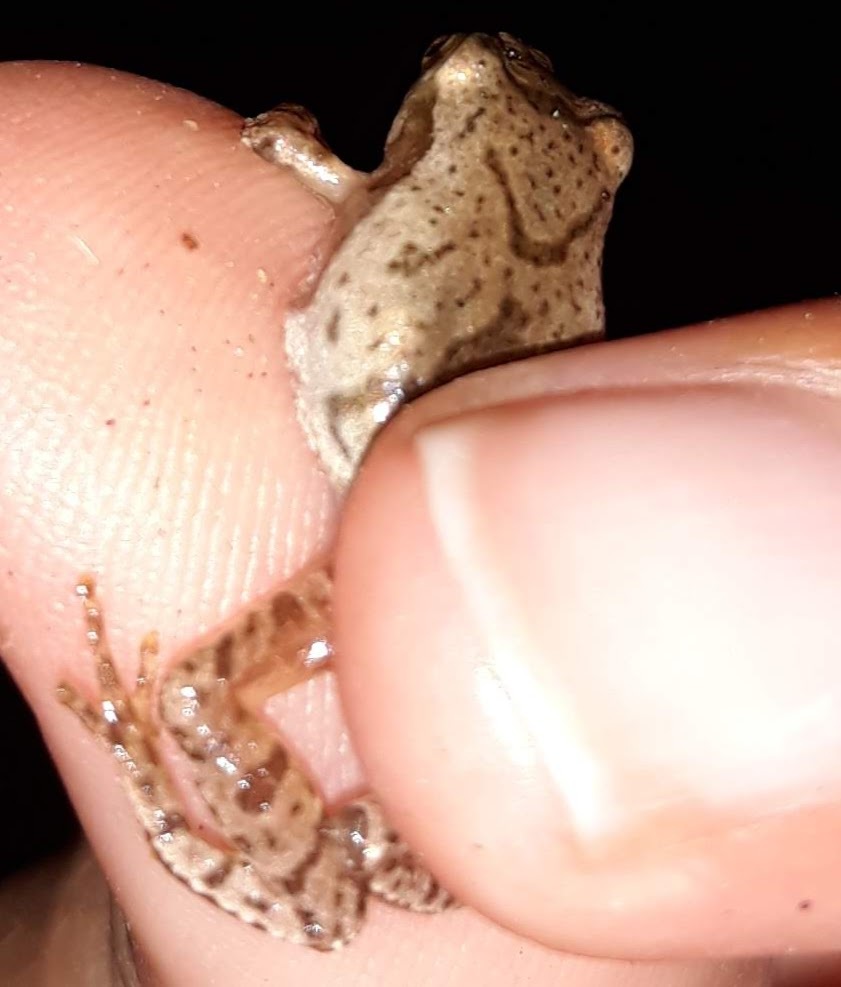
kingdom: Animalia
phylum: Chordata
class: Amphibia
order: Anura
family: Hylidae
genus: Pseudacris
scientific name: Pseudacris crucifer
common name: Spring peeper
